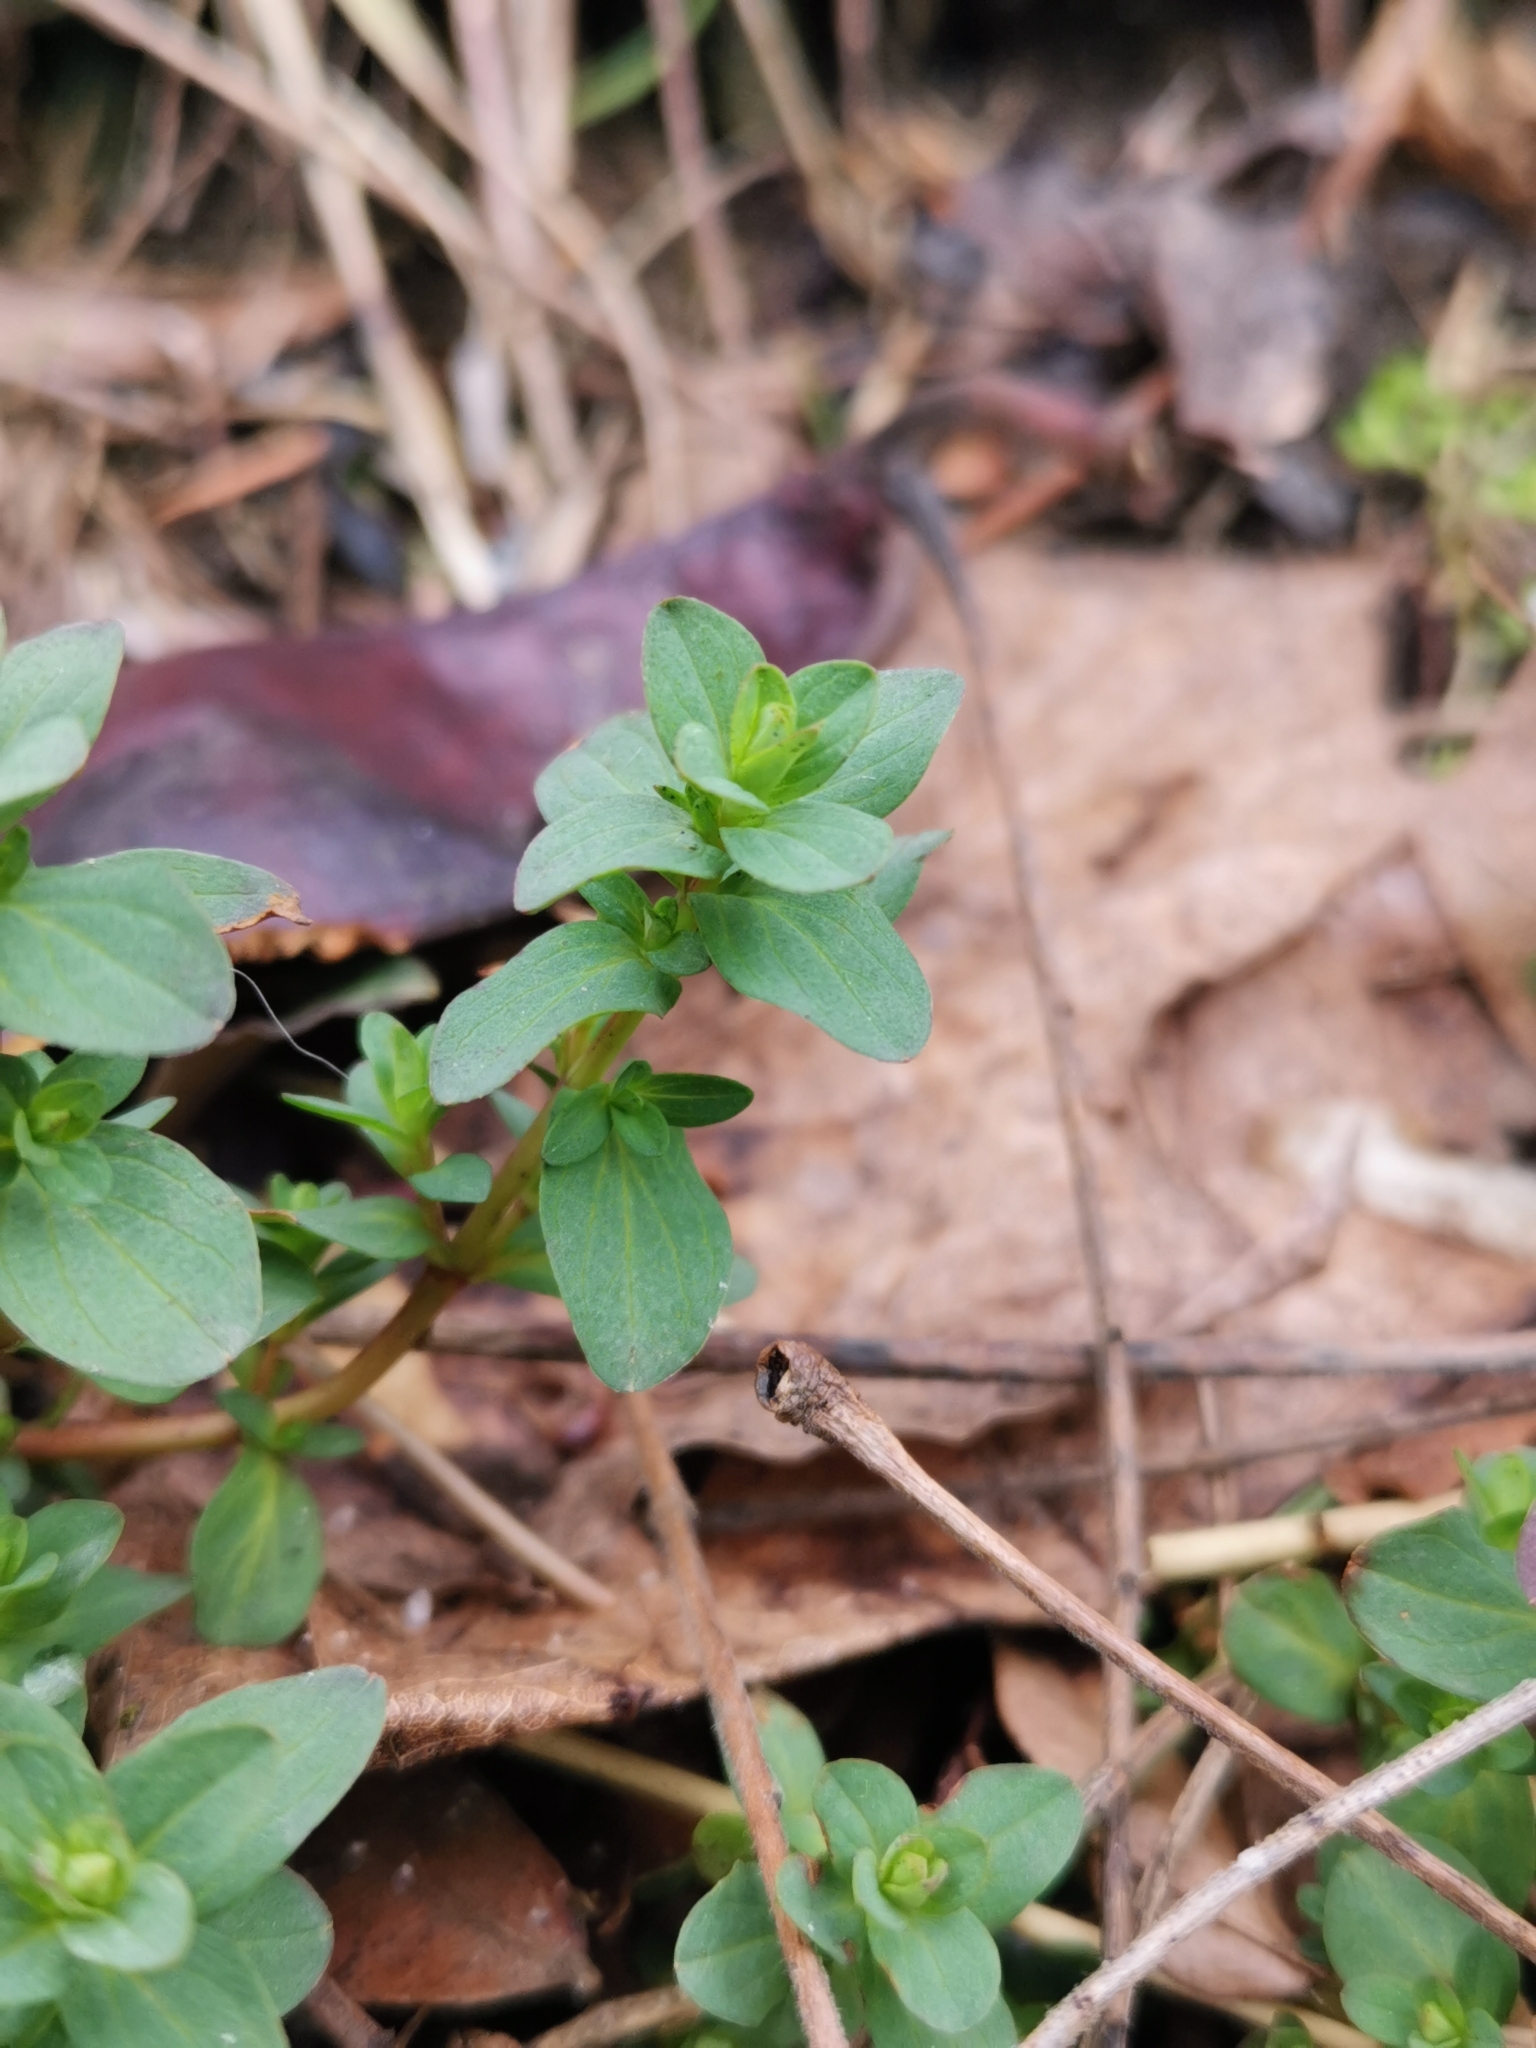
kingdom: Plantae
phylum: Tracheophyta
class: Magnoliopsida
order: Malpighiales
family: Hypericaceae
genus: Hypericum
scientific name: Hypericum perforatum
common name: Common st. johnswort
